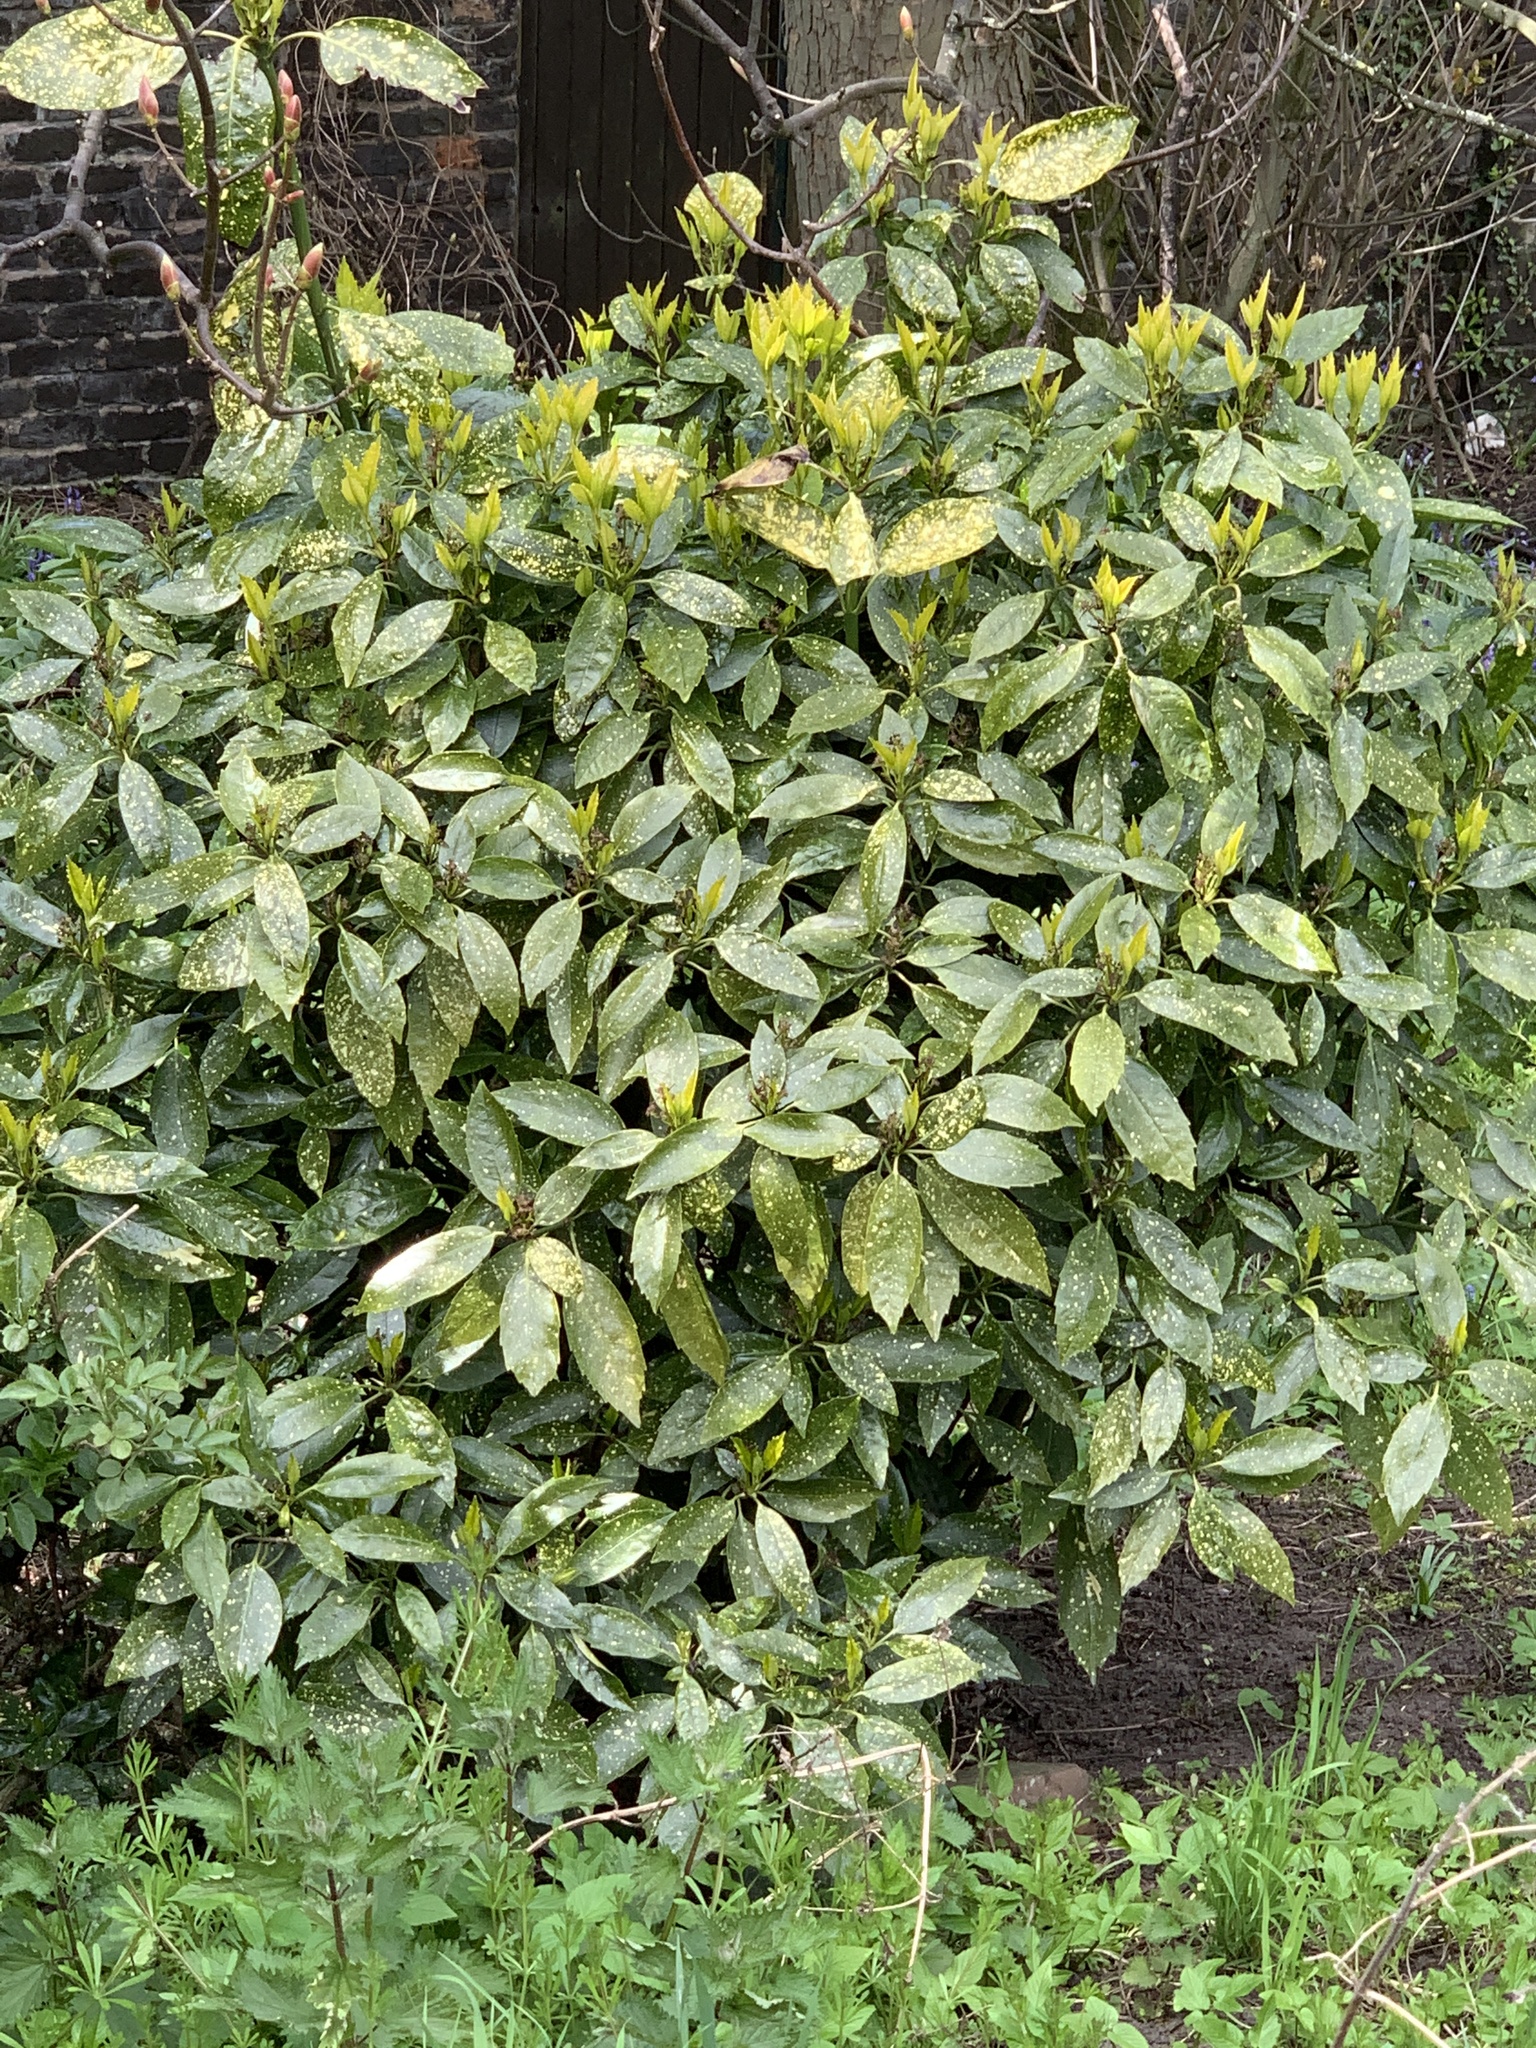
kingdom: Plantae
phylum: Tracheophyta
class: Magnoliopsida
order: Garryales
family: Garryaceae
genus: Aucuba
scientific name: Aucuba japonica
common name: Spotted-laurel
